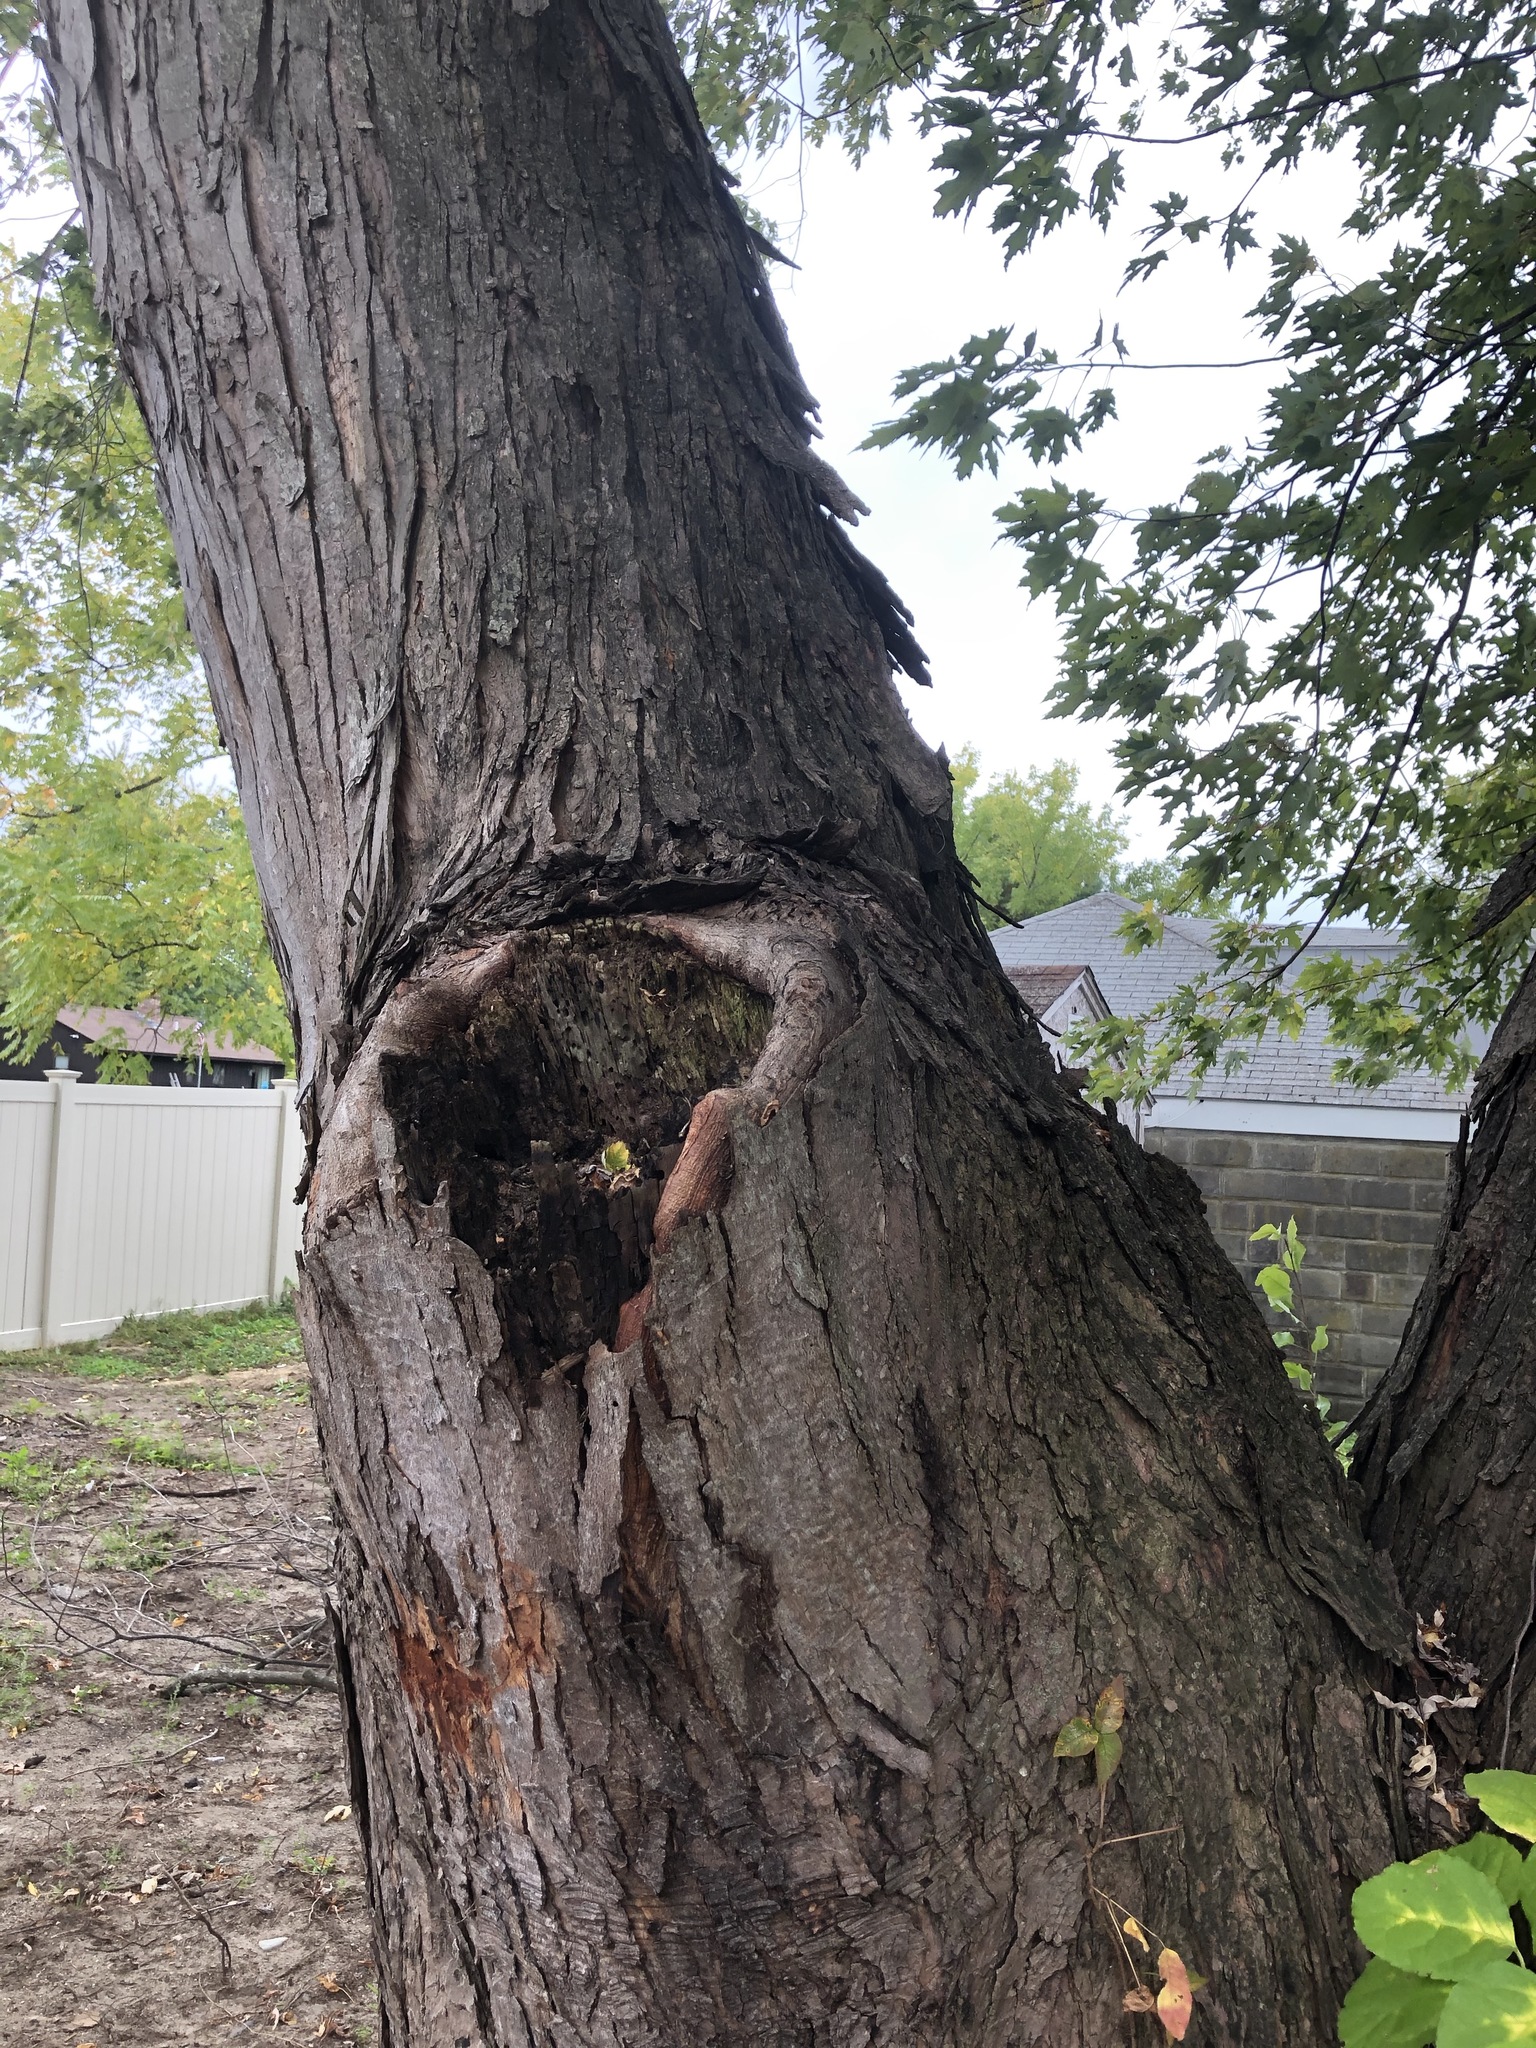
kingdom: Plantae
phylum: Tracheophyta
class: Magnoliopsida
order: Sapindales
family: Sapindaceae
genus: Acer
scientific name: Acer saccharinum
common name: Silver maple
